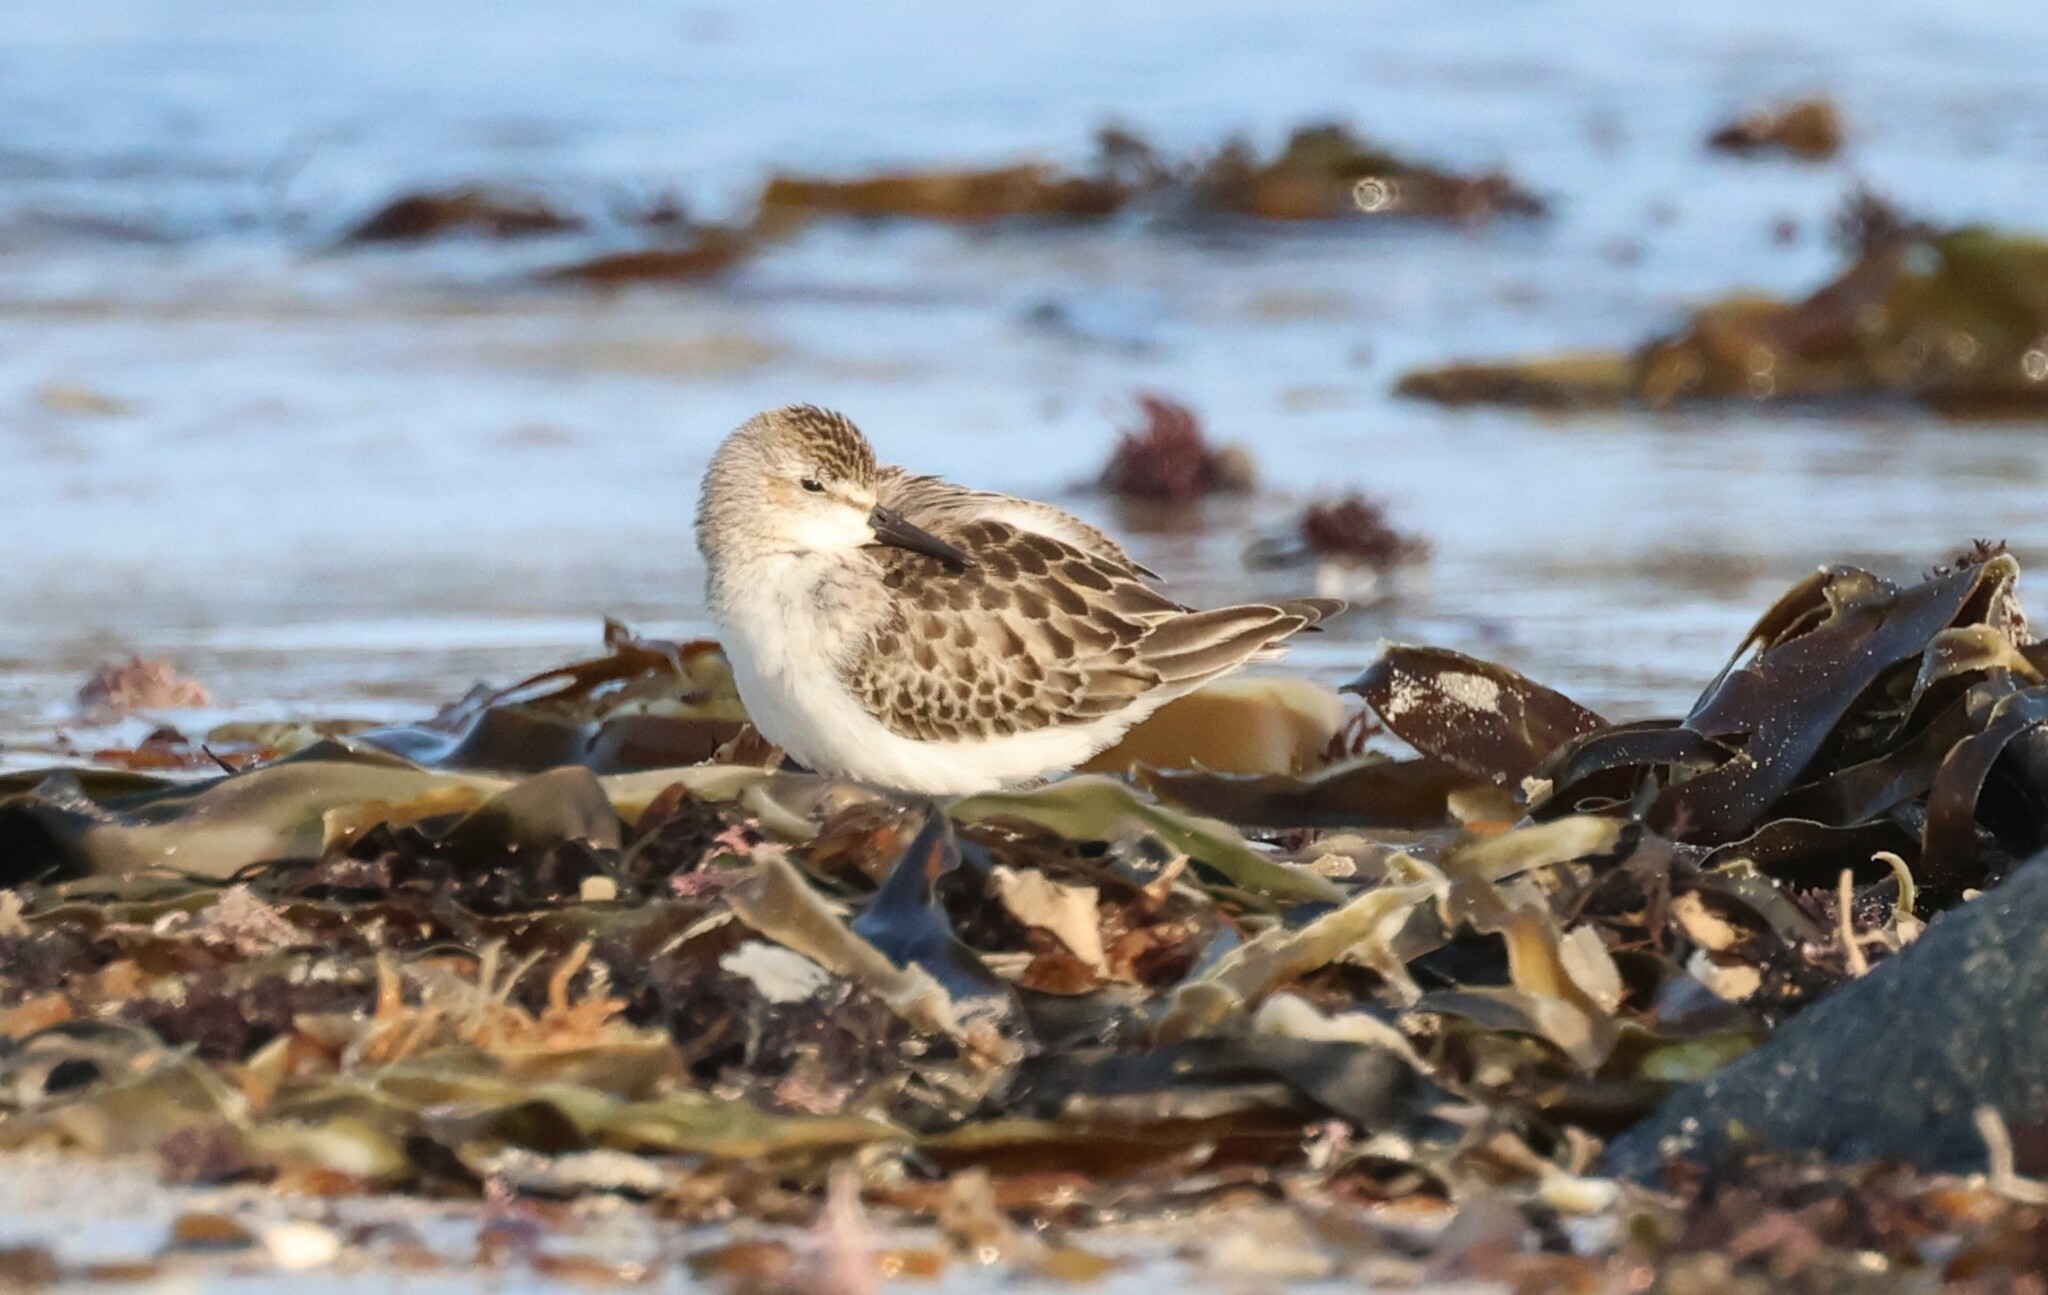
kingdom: Animalia
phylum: Chordata
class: Aves
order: Charadriiformes
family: Scolopacidae
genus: Calidris
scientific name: Calidris pusilla
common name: Semipalmated sandpiper
